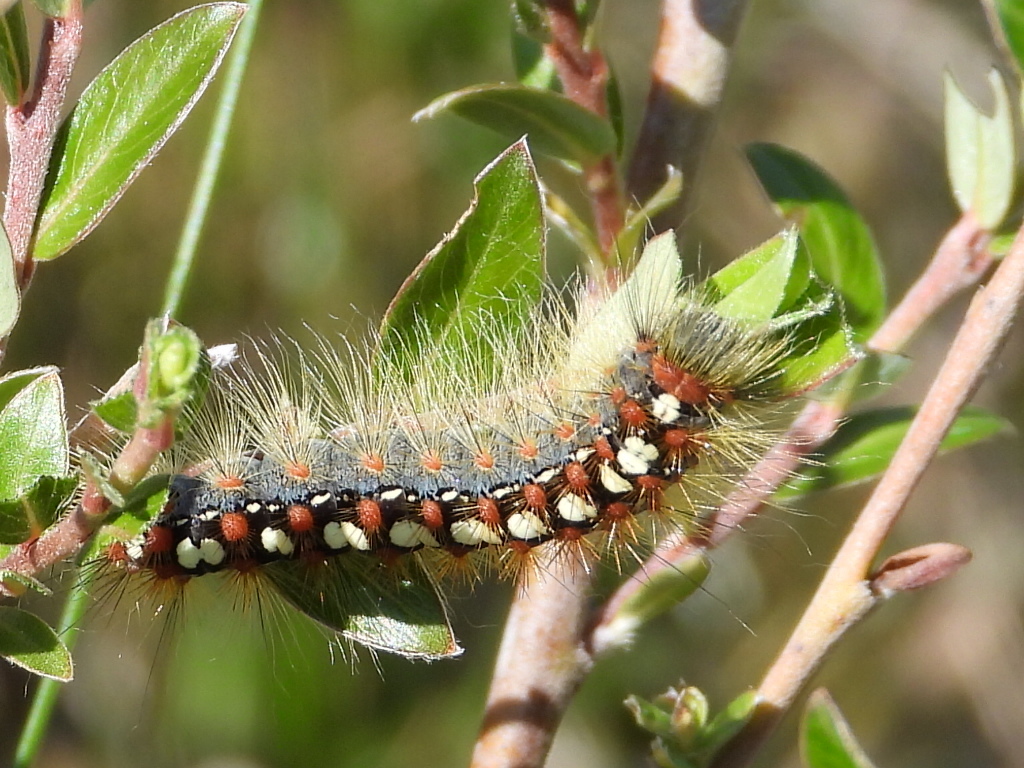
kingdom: Animalia
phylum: Arthropoda
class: Insecta
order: Lepidoptera
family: Erebidae
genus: Leucoma
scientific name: Leucoma salicis
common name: White satin moth
